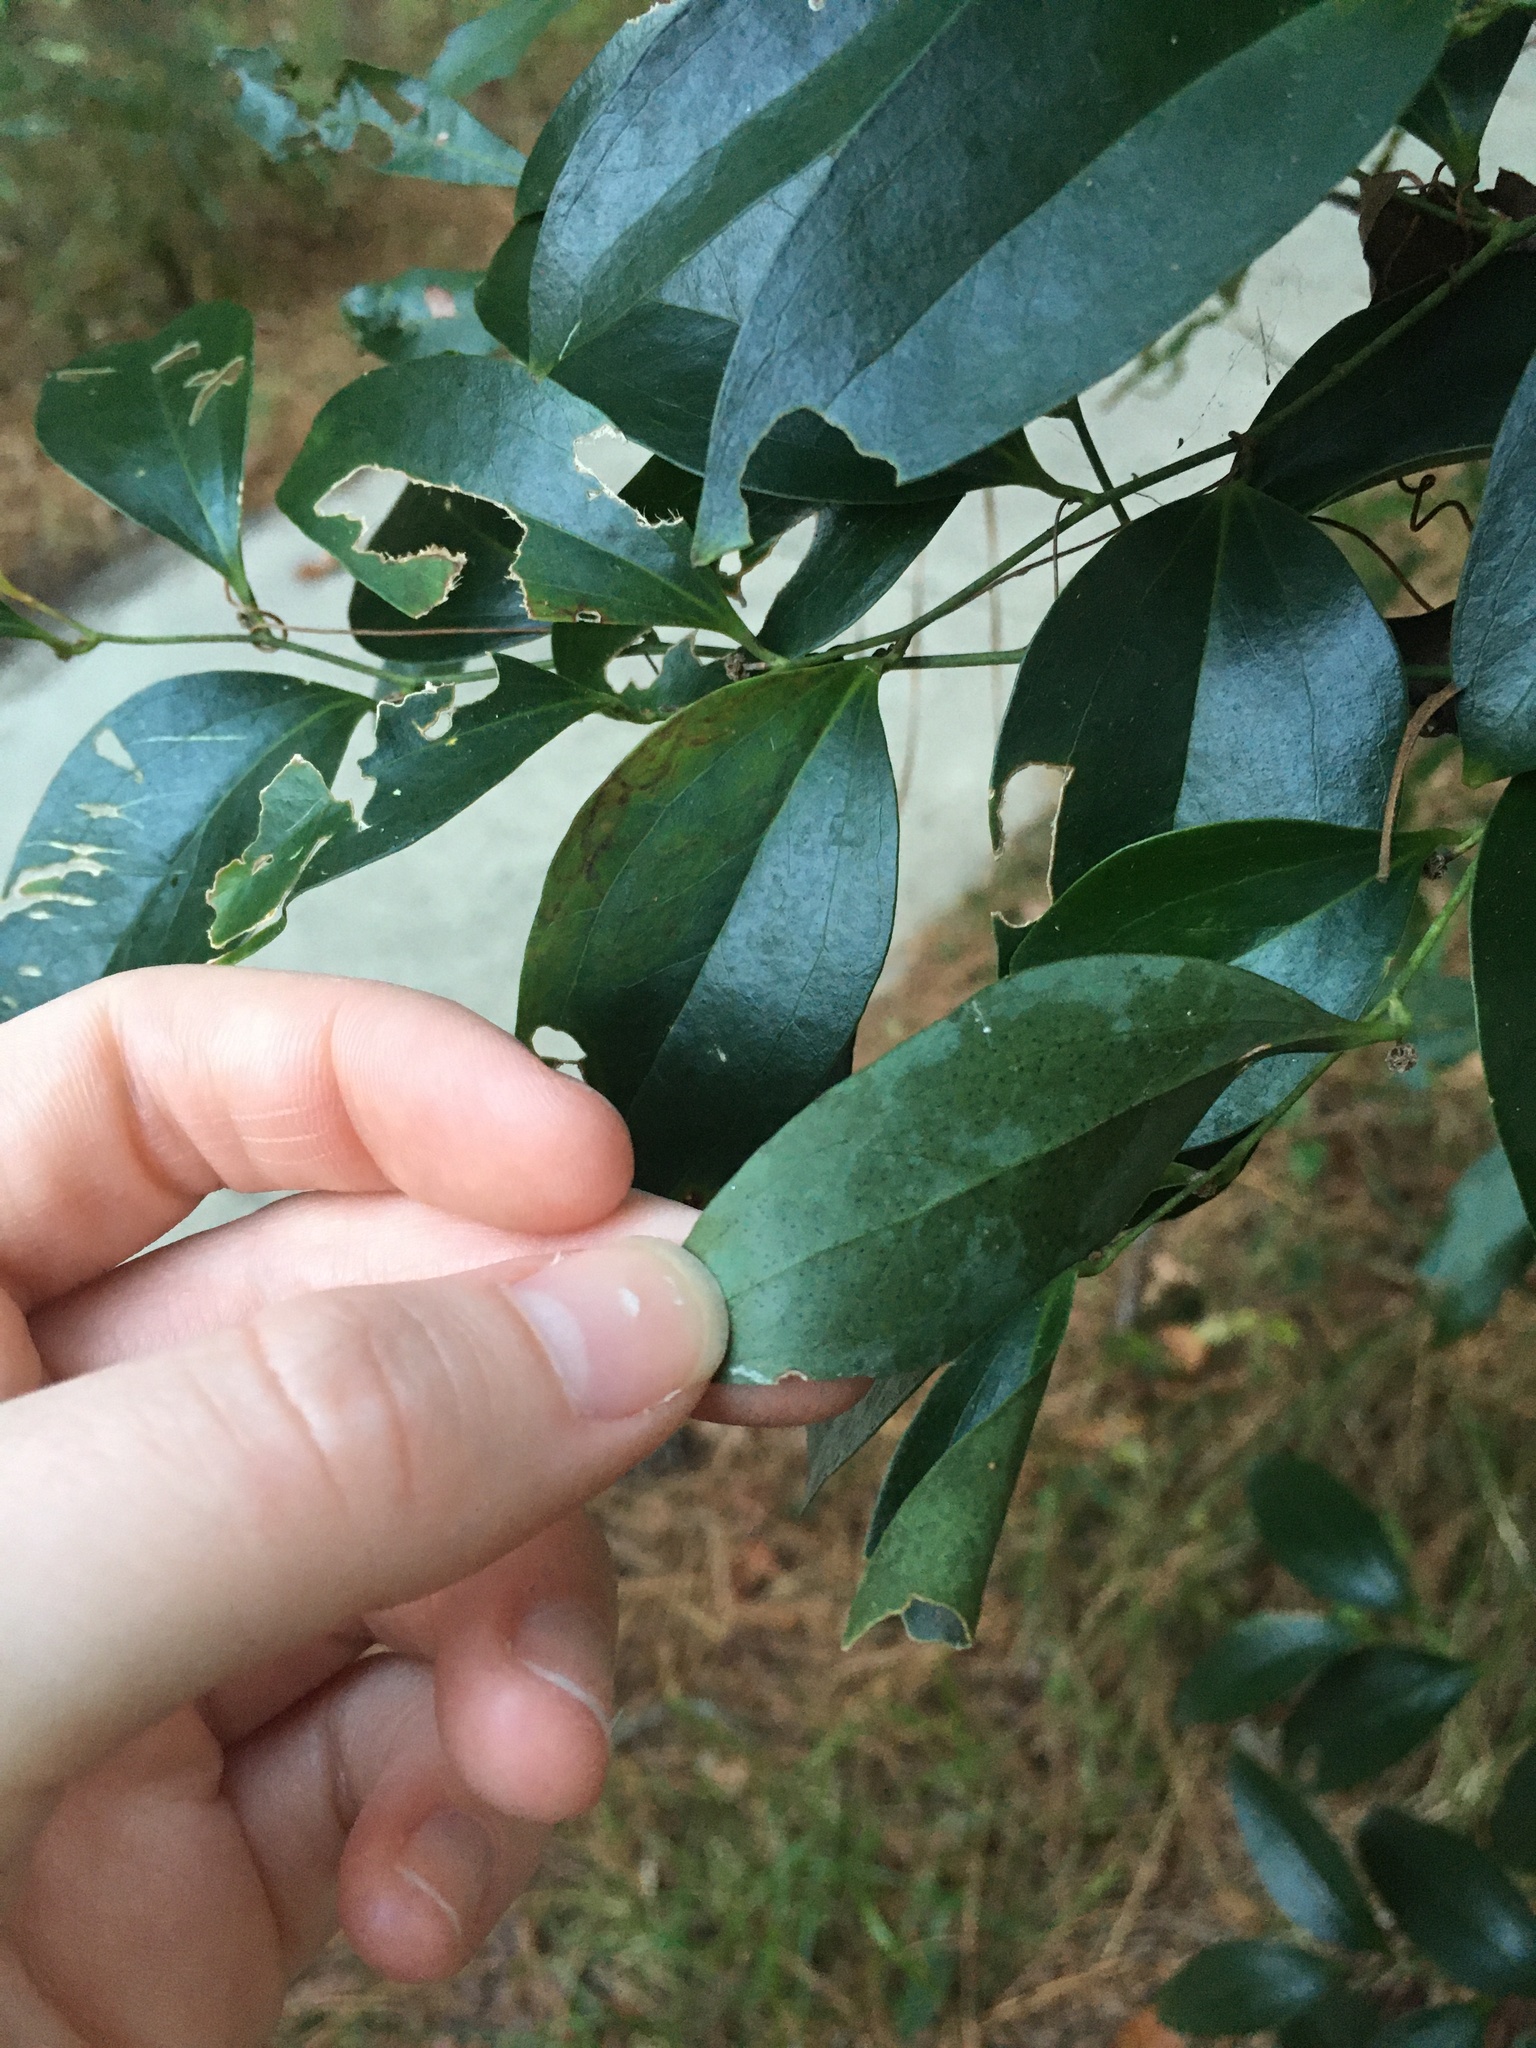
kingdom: Plantae
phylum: Tracheophyta
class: Liliopsida
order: Liliales
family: Smilacaceae
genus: Smilax
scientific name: Smilax maritima
